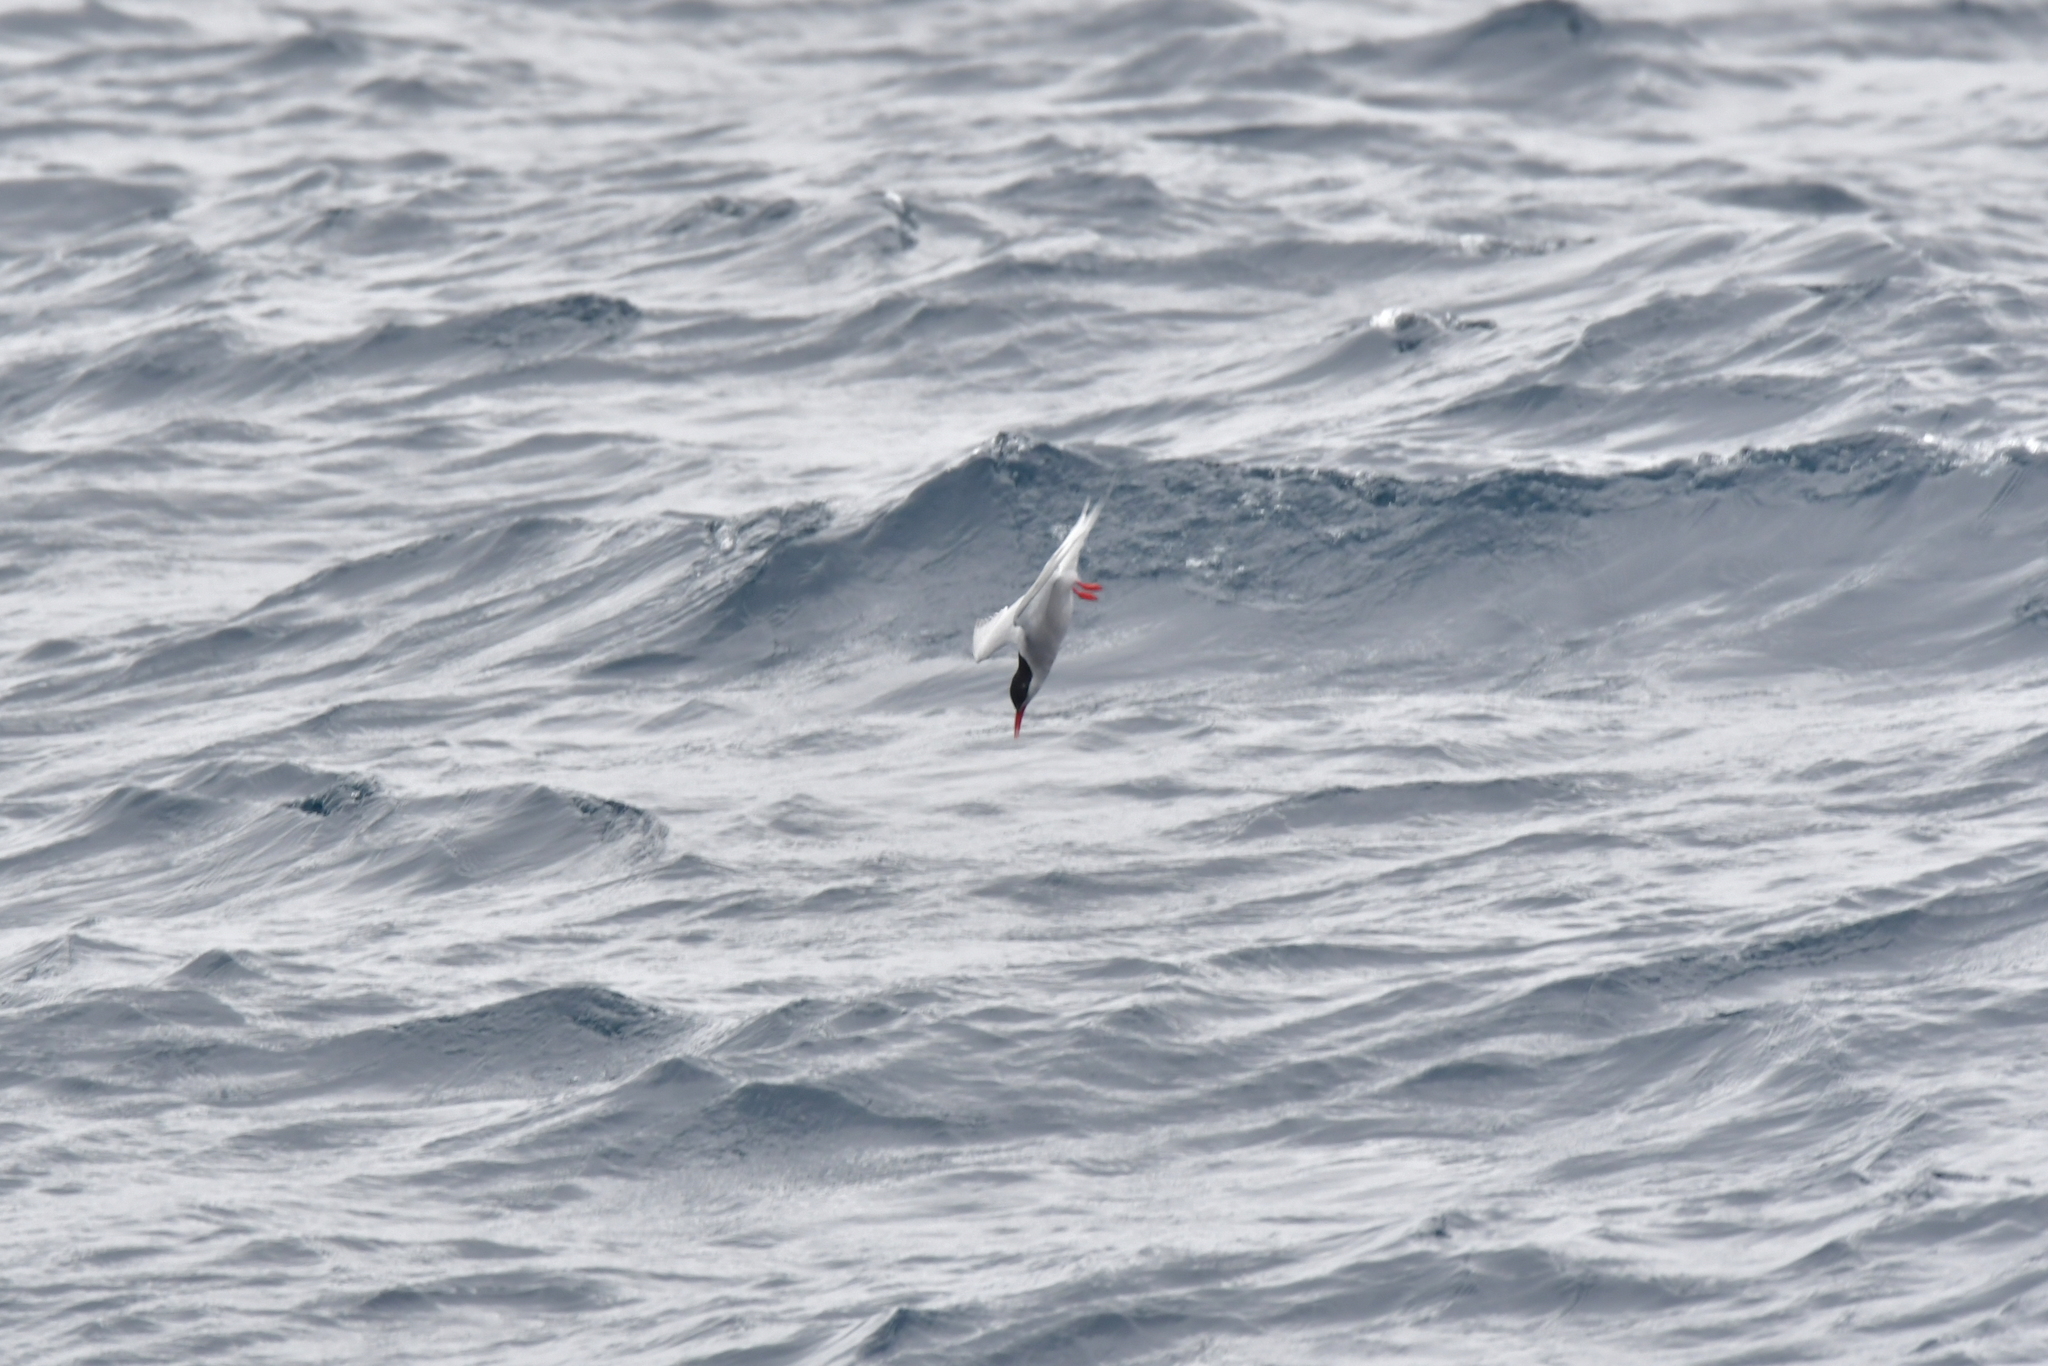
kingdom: Animalia
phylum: Chordata
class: Aves
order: Charadriiformes
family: Laridae
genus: Sterna
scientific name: Sterna vittata
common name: Antarctic tern
